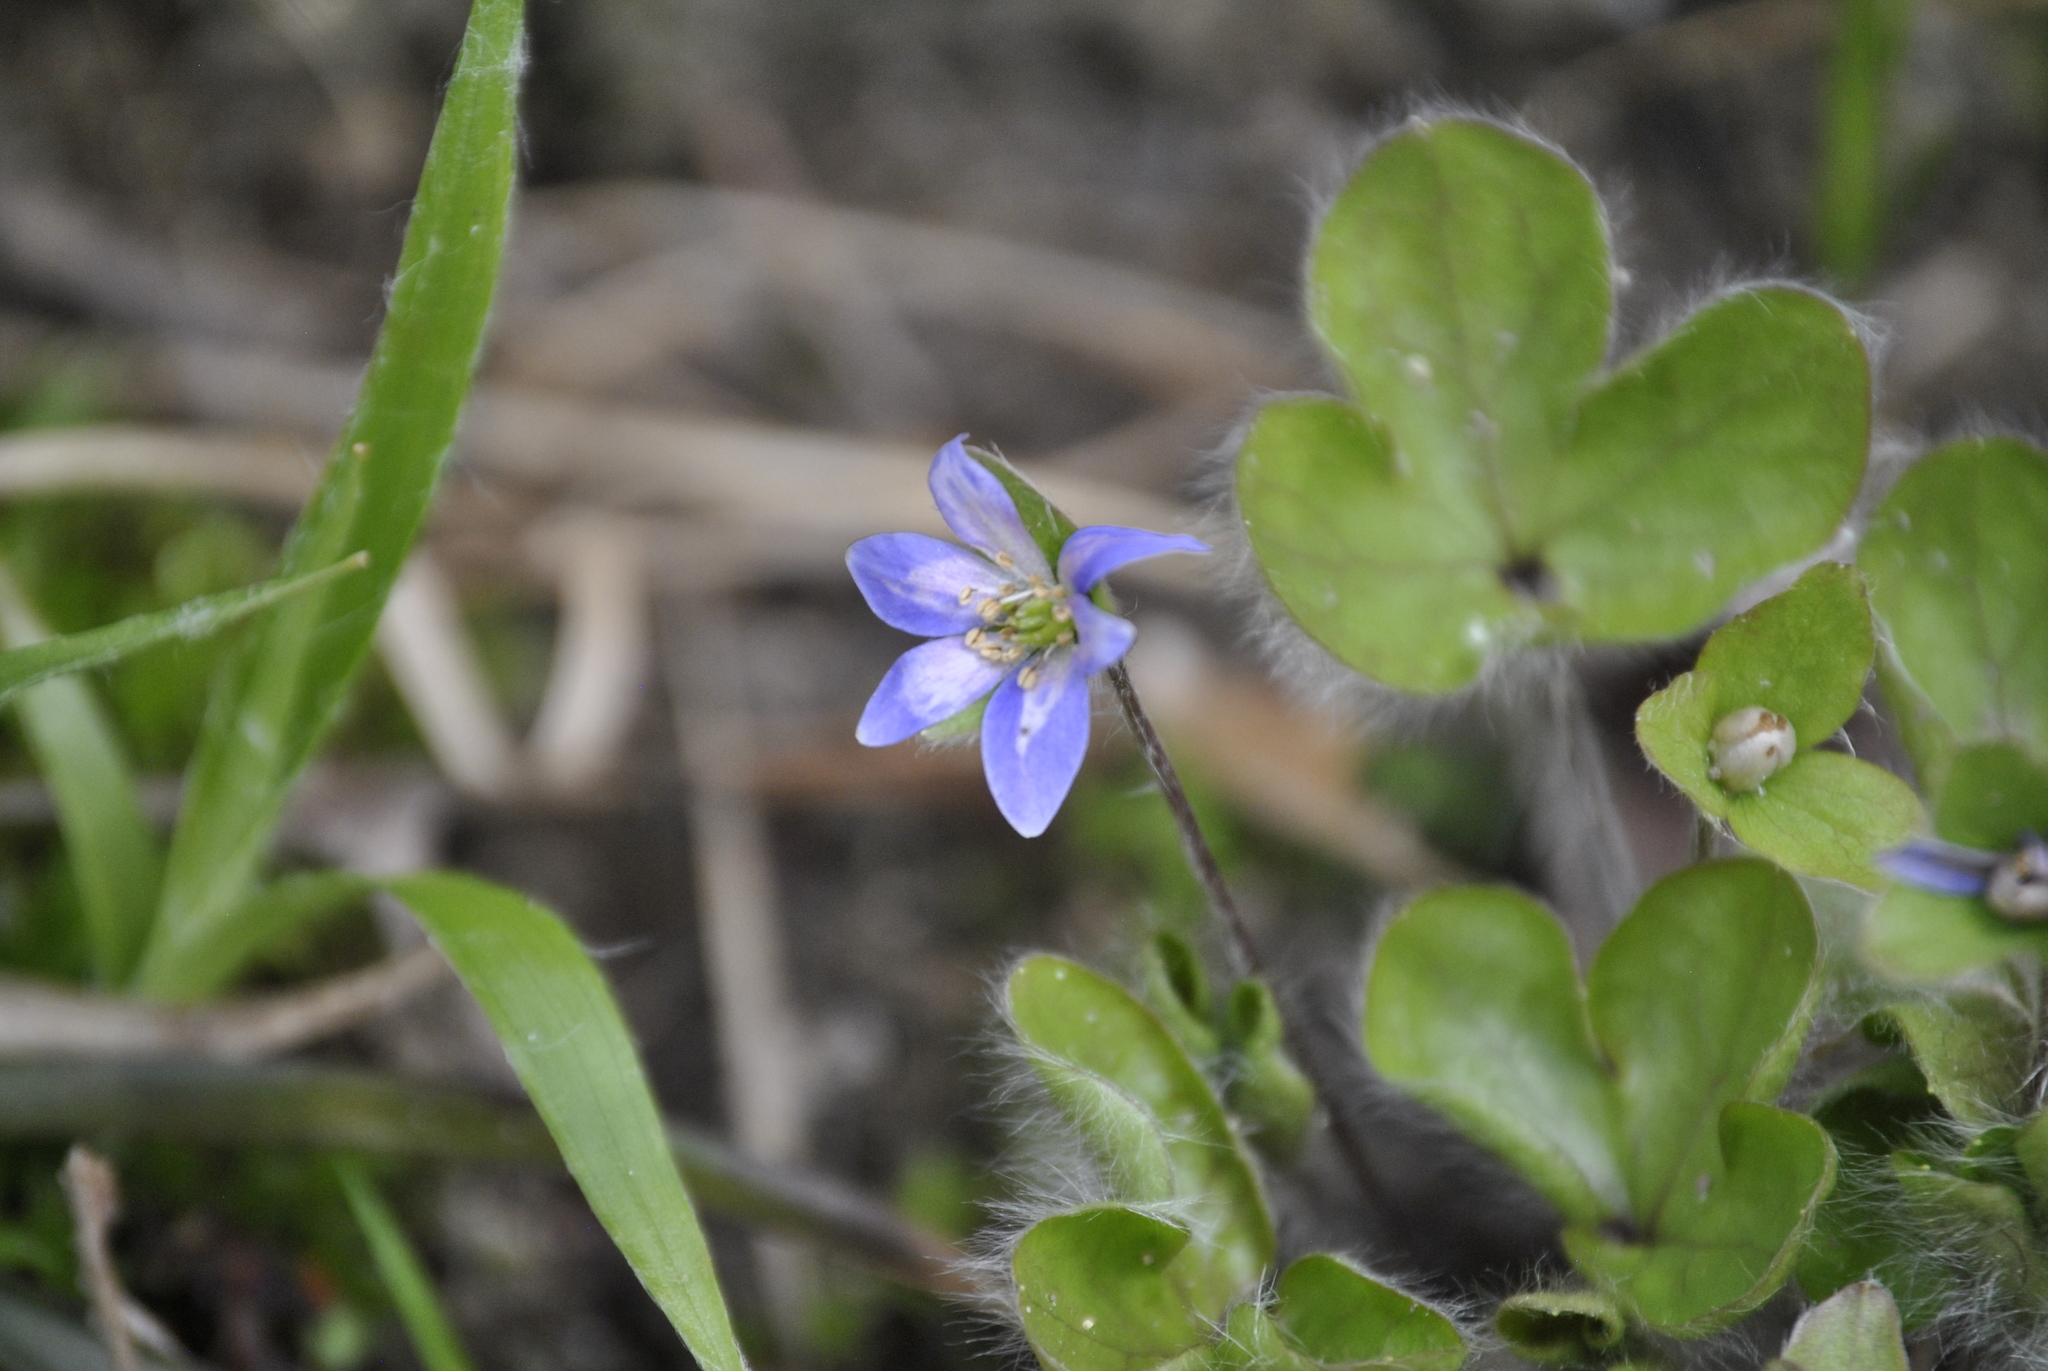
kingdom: Plantae
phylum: Tracheophyta
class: Magnoliopsida
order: Ranunculales
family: Ranunculaceae
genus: Hepatica
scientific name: Hepatica americana
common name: American hepatica
